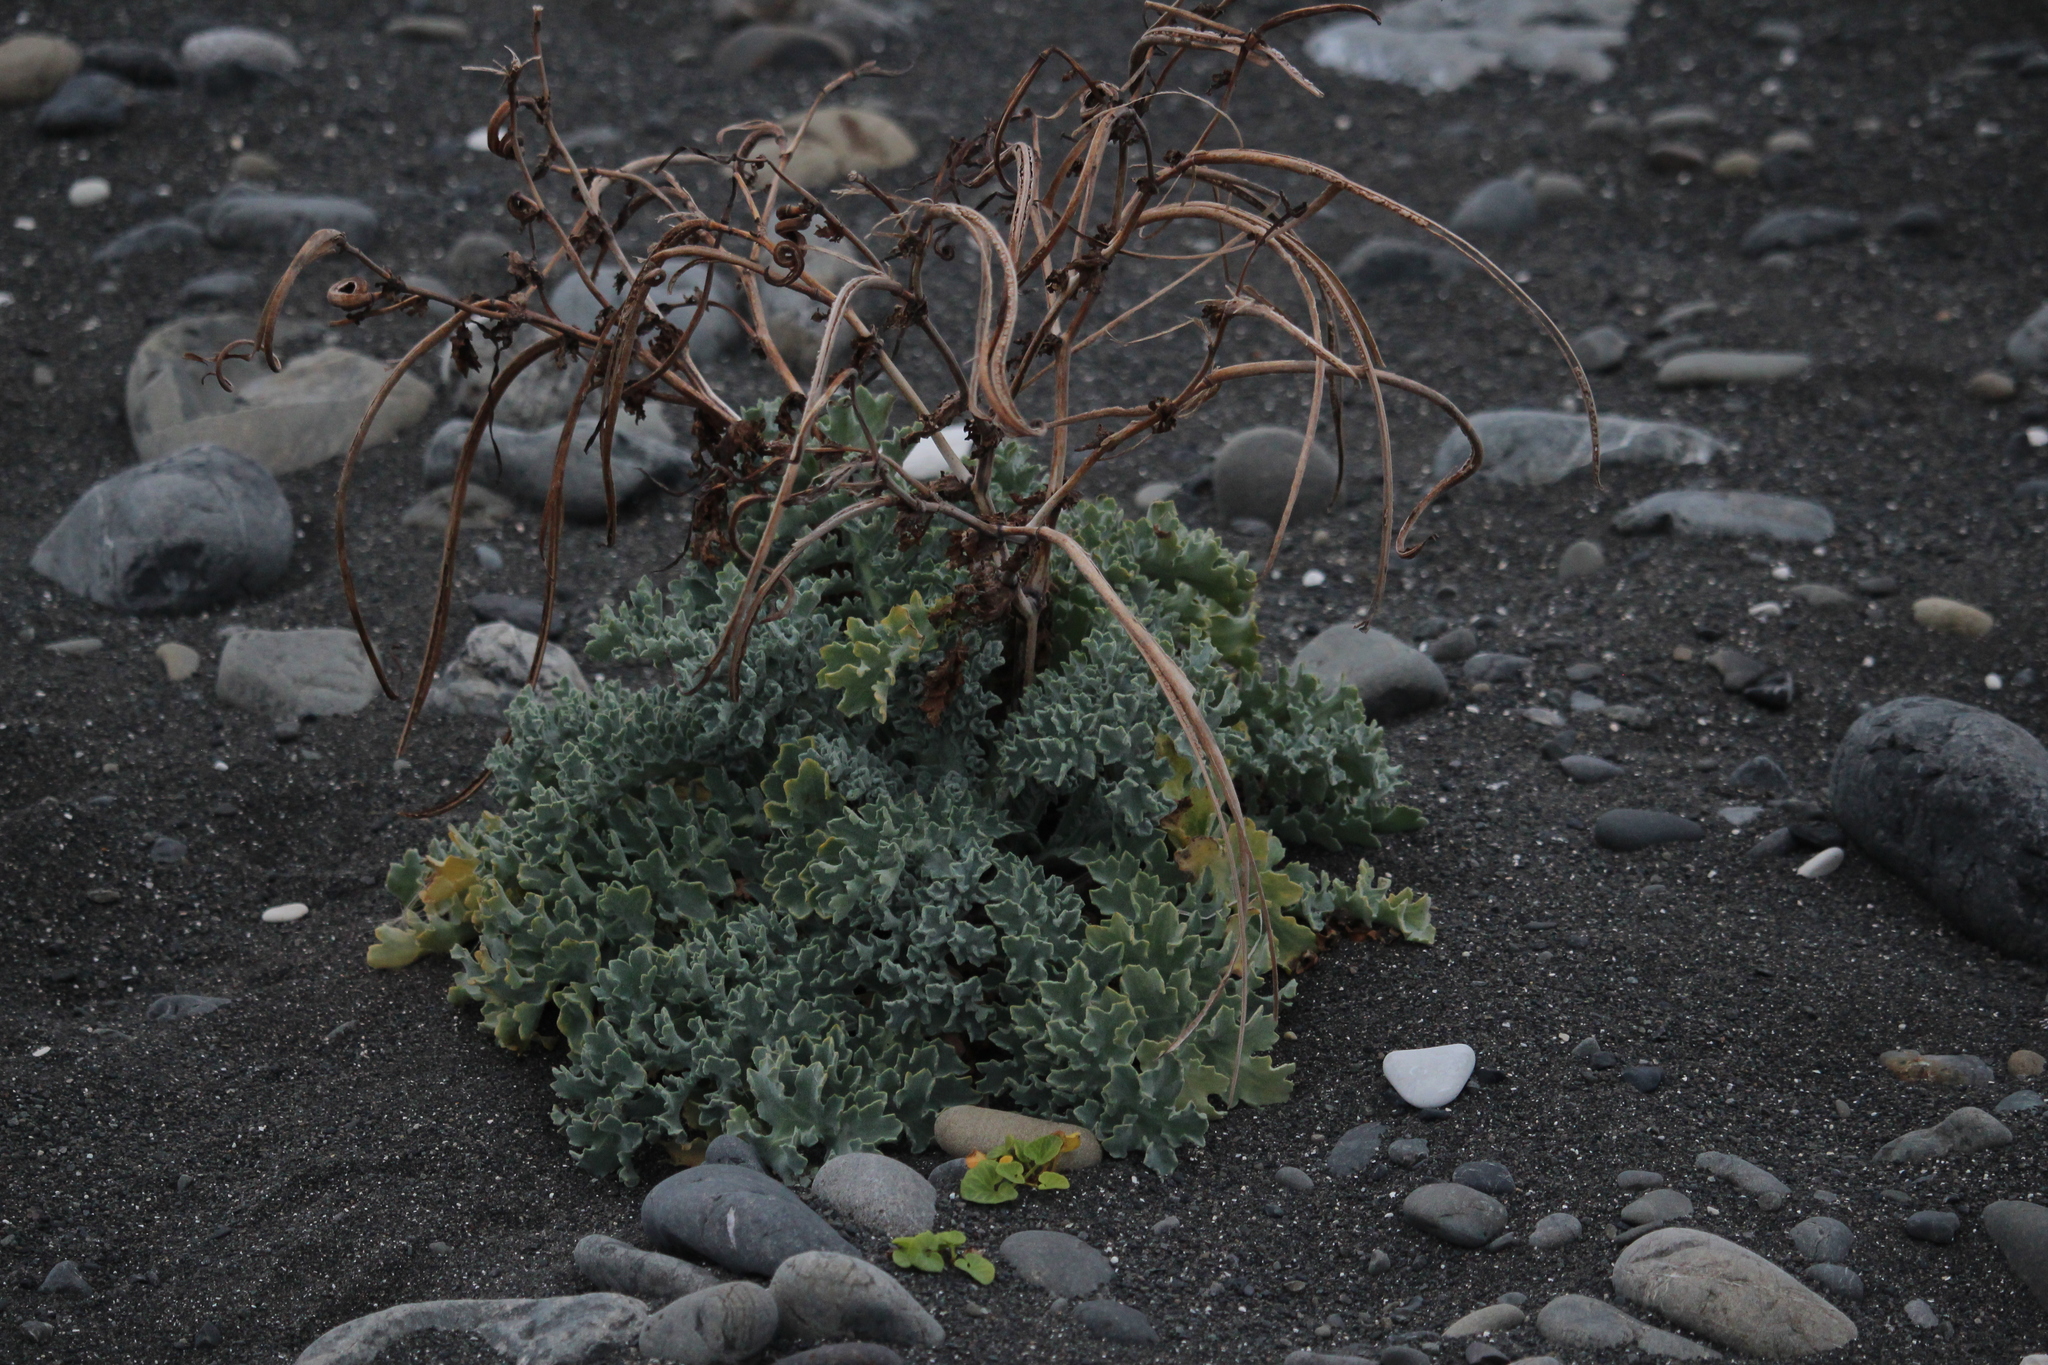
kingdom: Plantae
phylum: Tracheophyta
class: Magnoliopsida
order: Ranunculales
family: Papaveraceae
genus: Glaucium
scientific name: Glaucium flavum
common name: Yellow horned-poppy
